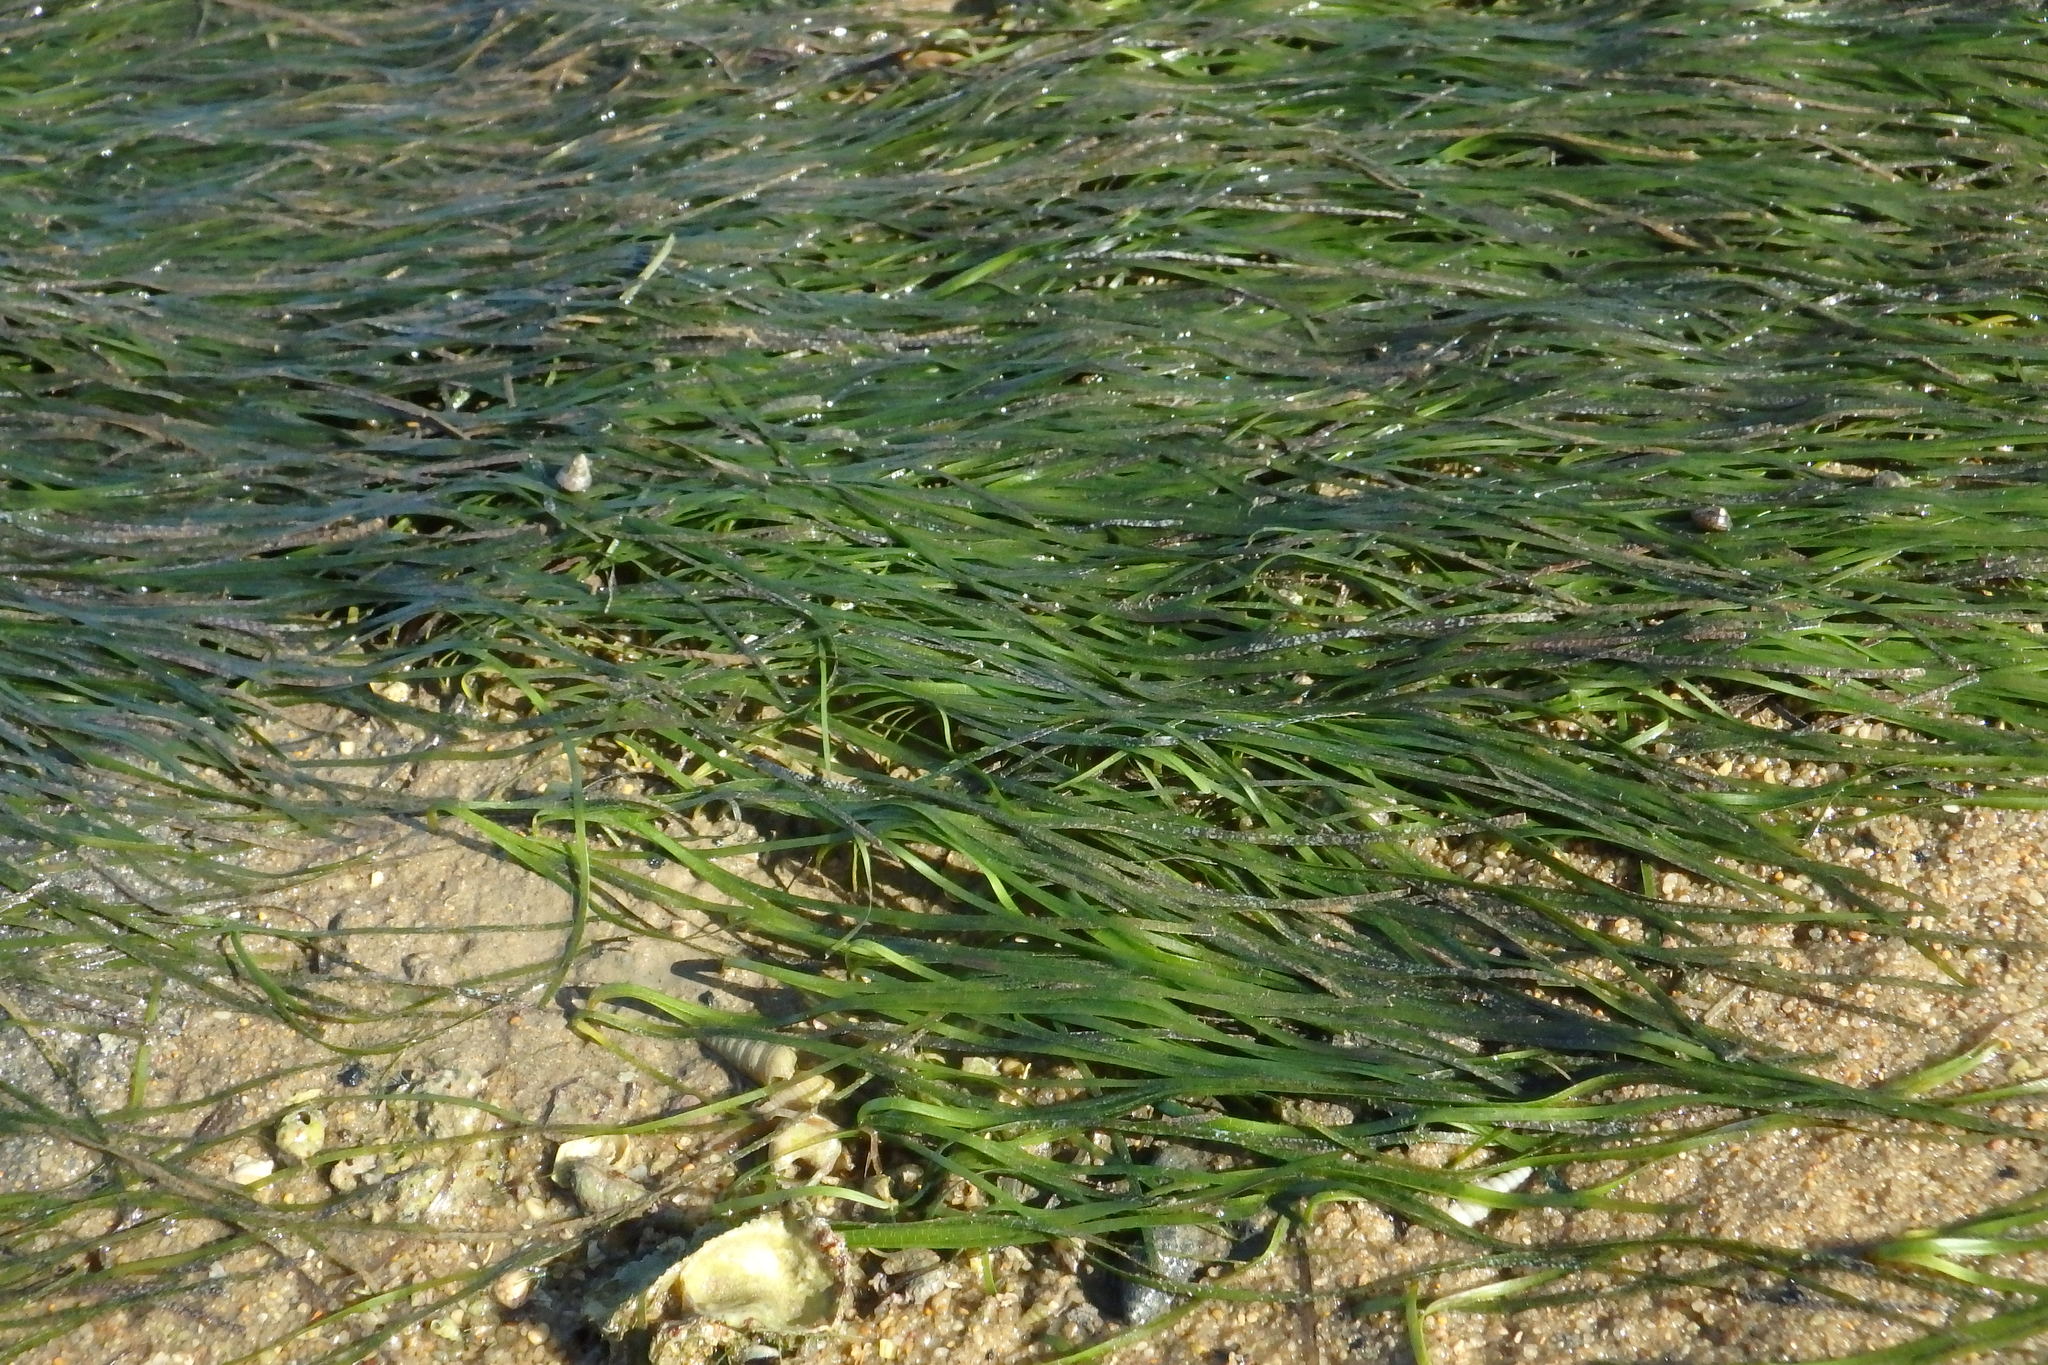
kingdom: Plantae
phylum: Tracheophyta
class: Liliopsida
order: Alismatales
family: Zosteraceae
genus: Zostera
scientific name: Zostera noltii
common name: Dwarf eelgrass
